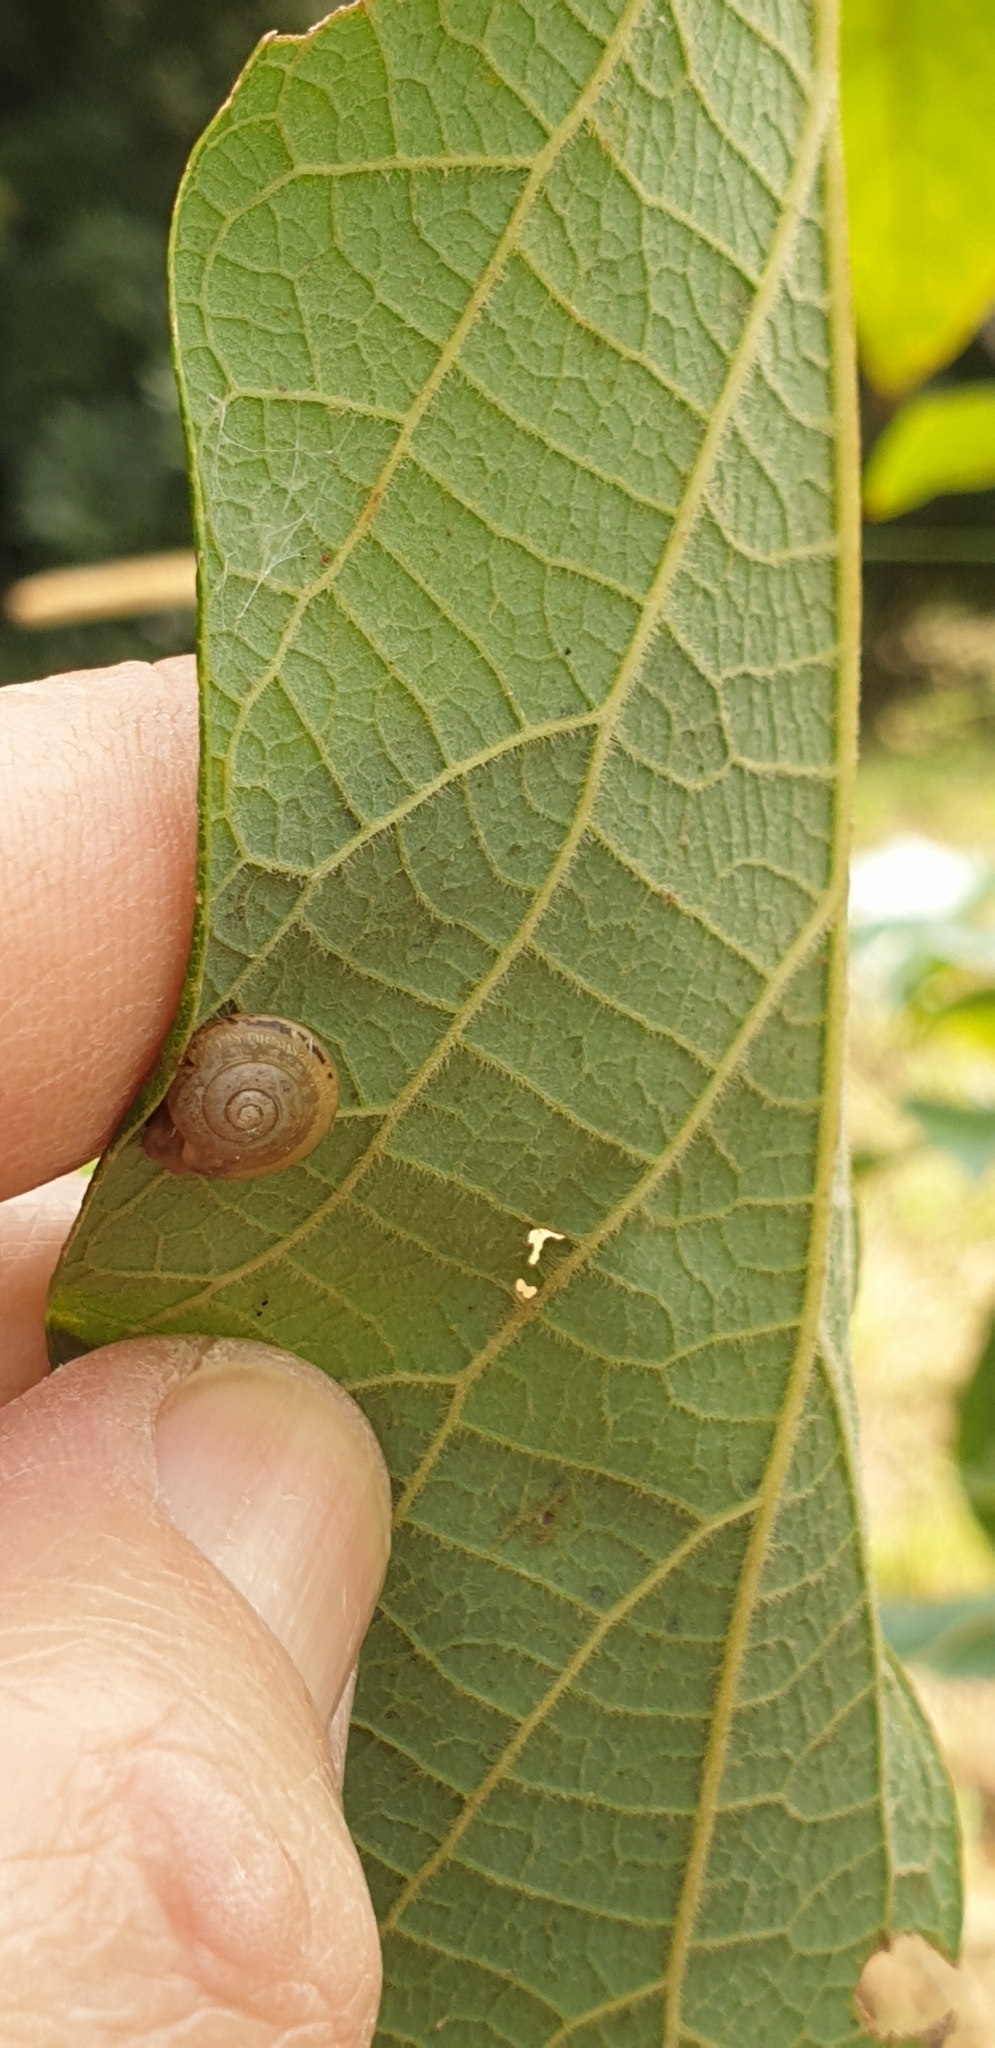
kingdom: Animalia
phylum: Mollusca
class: Gastropoda
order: Stylommatophora
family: Camaenidae
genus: Bradybaena
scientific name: Bradybaena similaris
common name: Asian trampsnail
